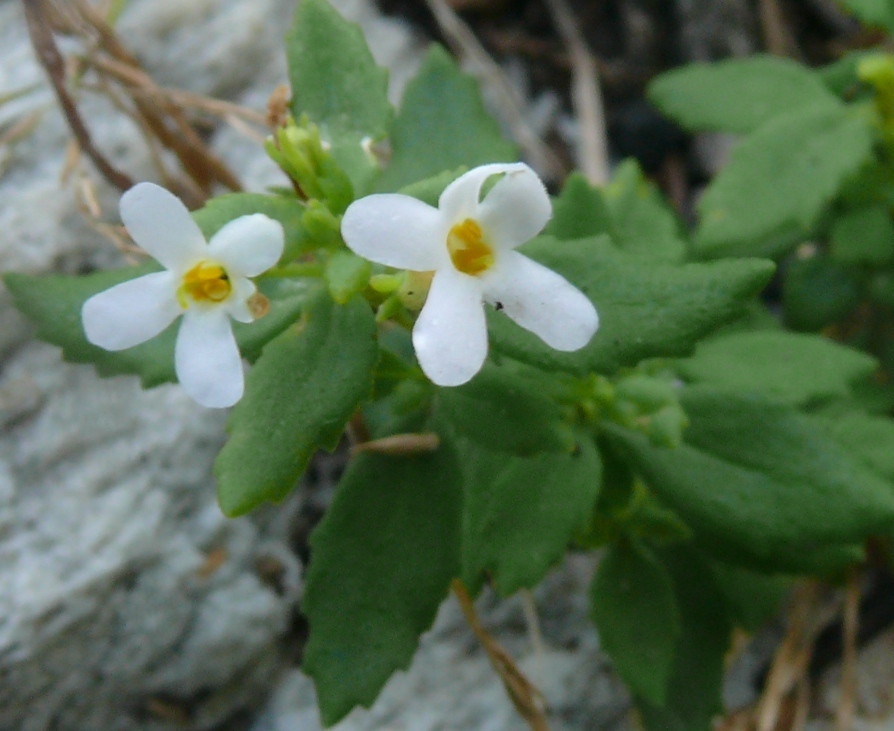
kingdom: Plantae
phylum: Tracheophyta
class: Magnoliopsida
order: Lamiales
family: Scrophulariaceae
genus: Chaenostoma
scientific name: Chaenostoma integrifolium
